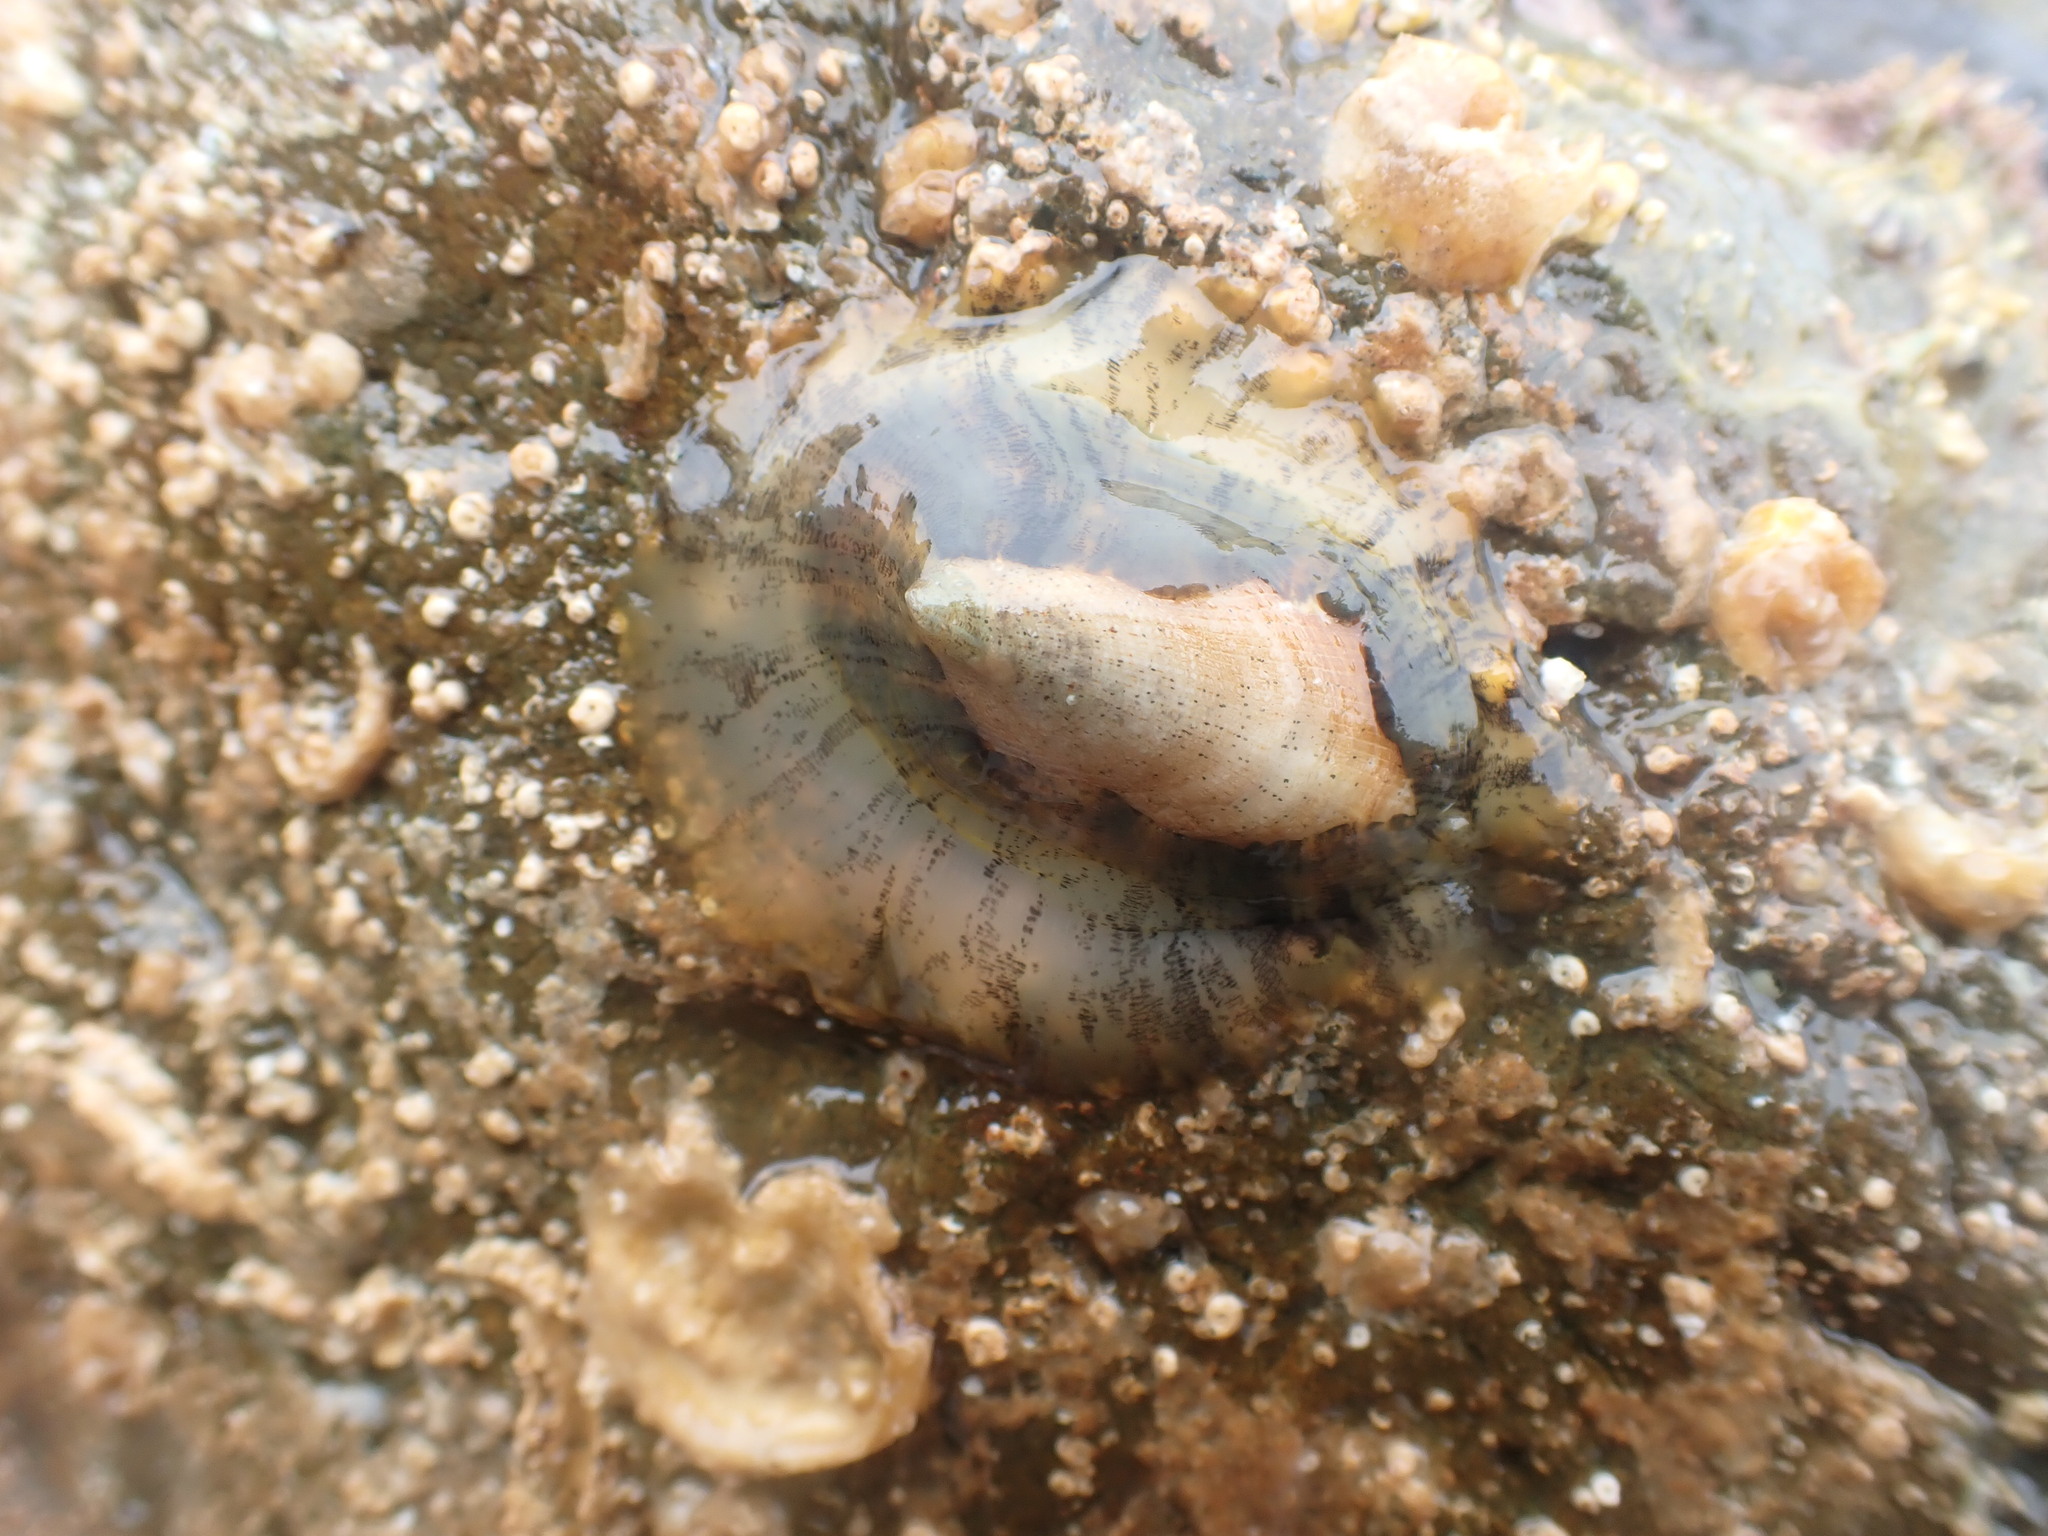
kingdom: Animalia
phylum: Mollusca
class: Gastropoda
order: Lepetellida
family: Fissurellidae
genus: Tugali
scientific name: Tugali elegans
